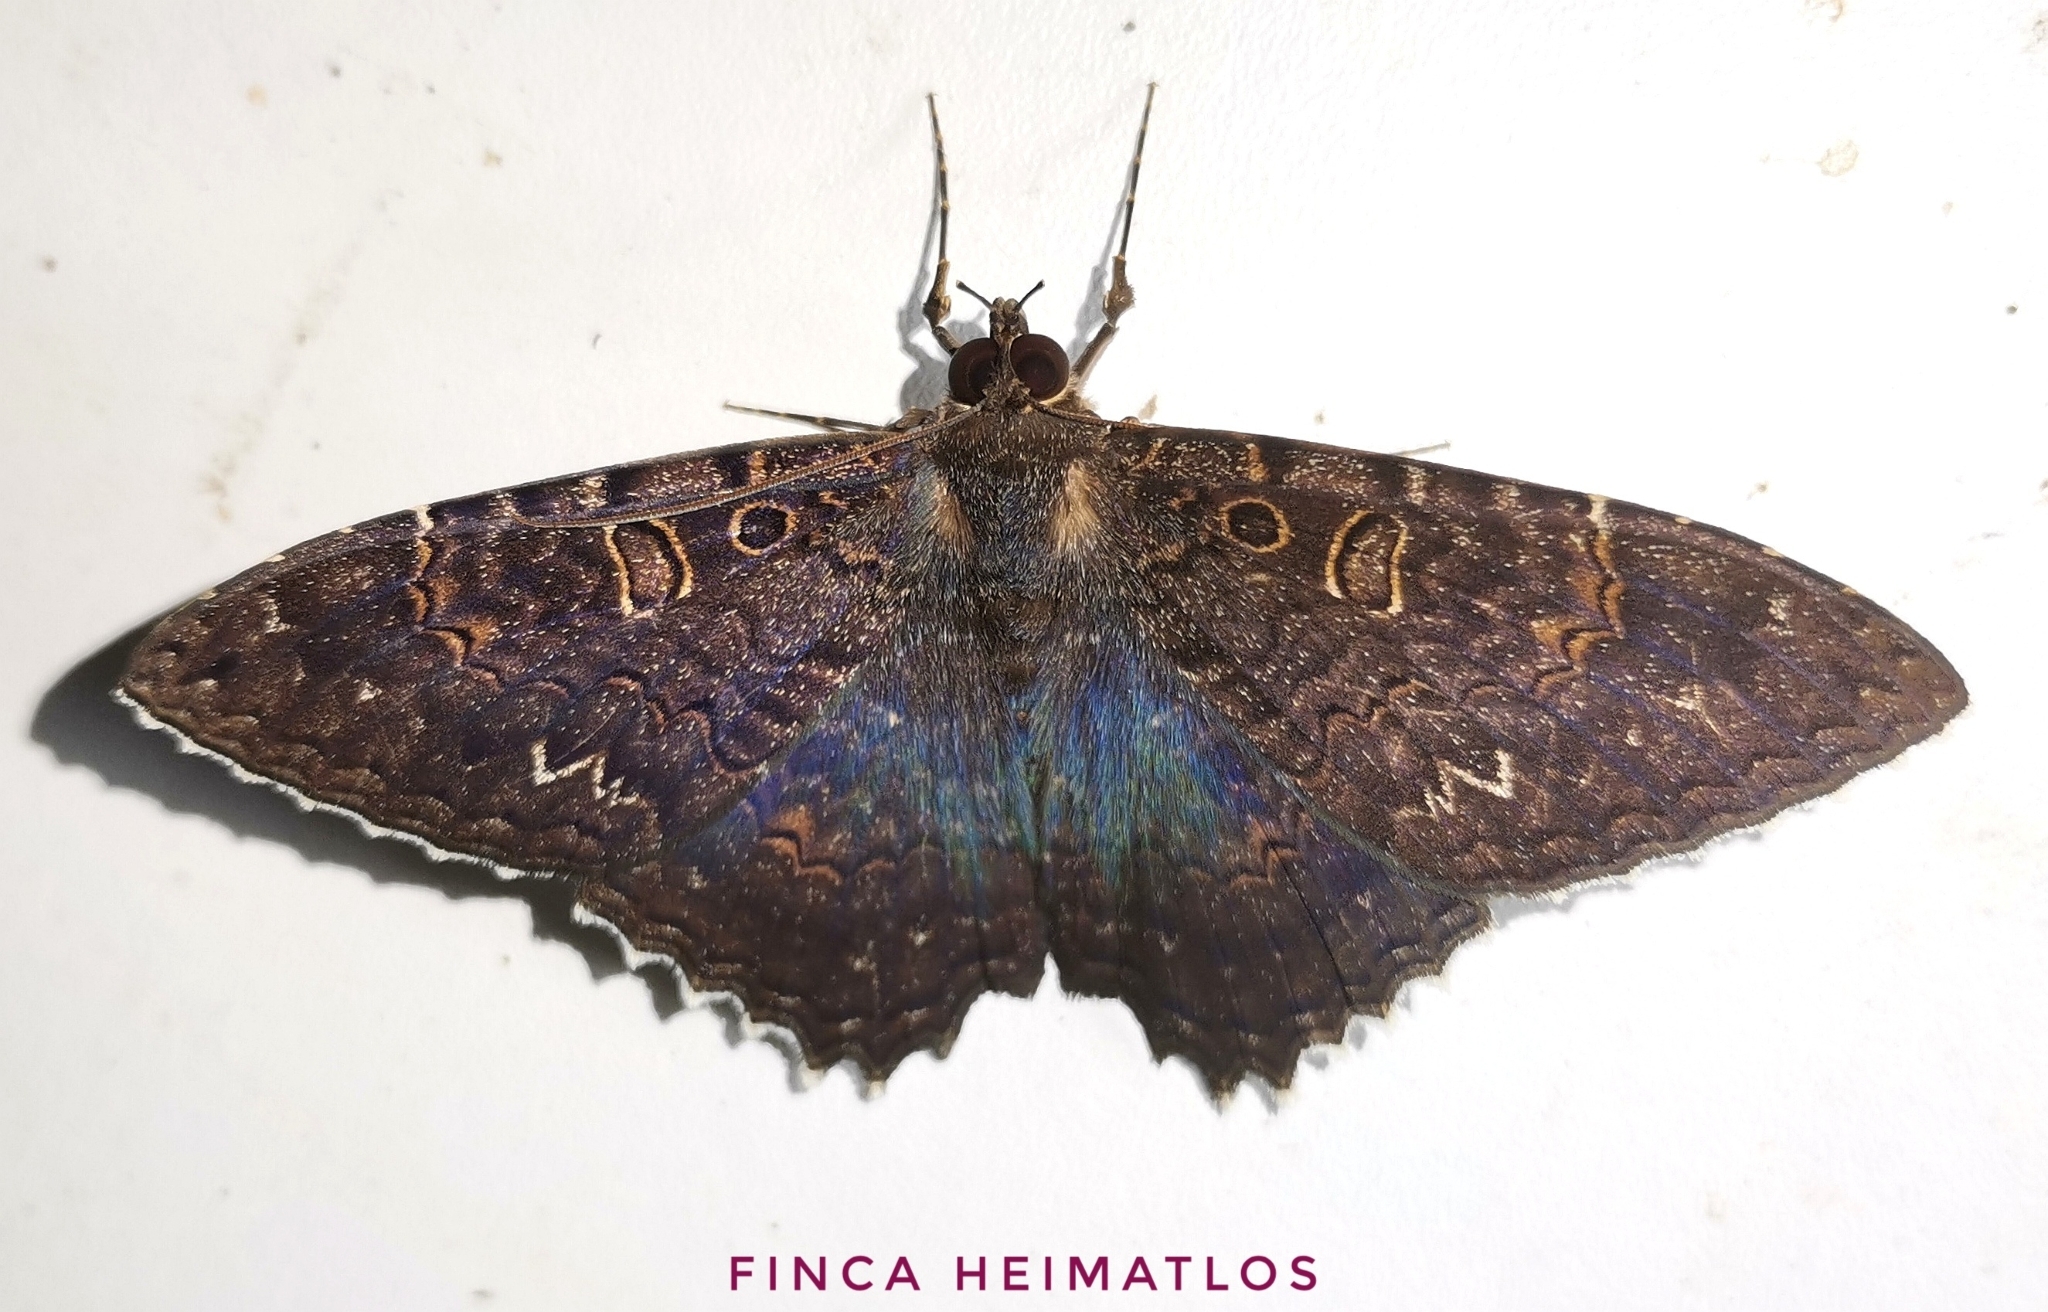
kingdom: Animalia
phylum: Arthropoda
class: Insecta
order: Lepidoptera
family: Erebidae
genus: Letis
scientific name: Letis albidentina
